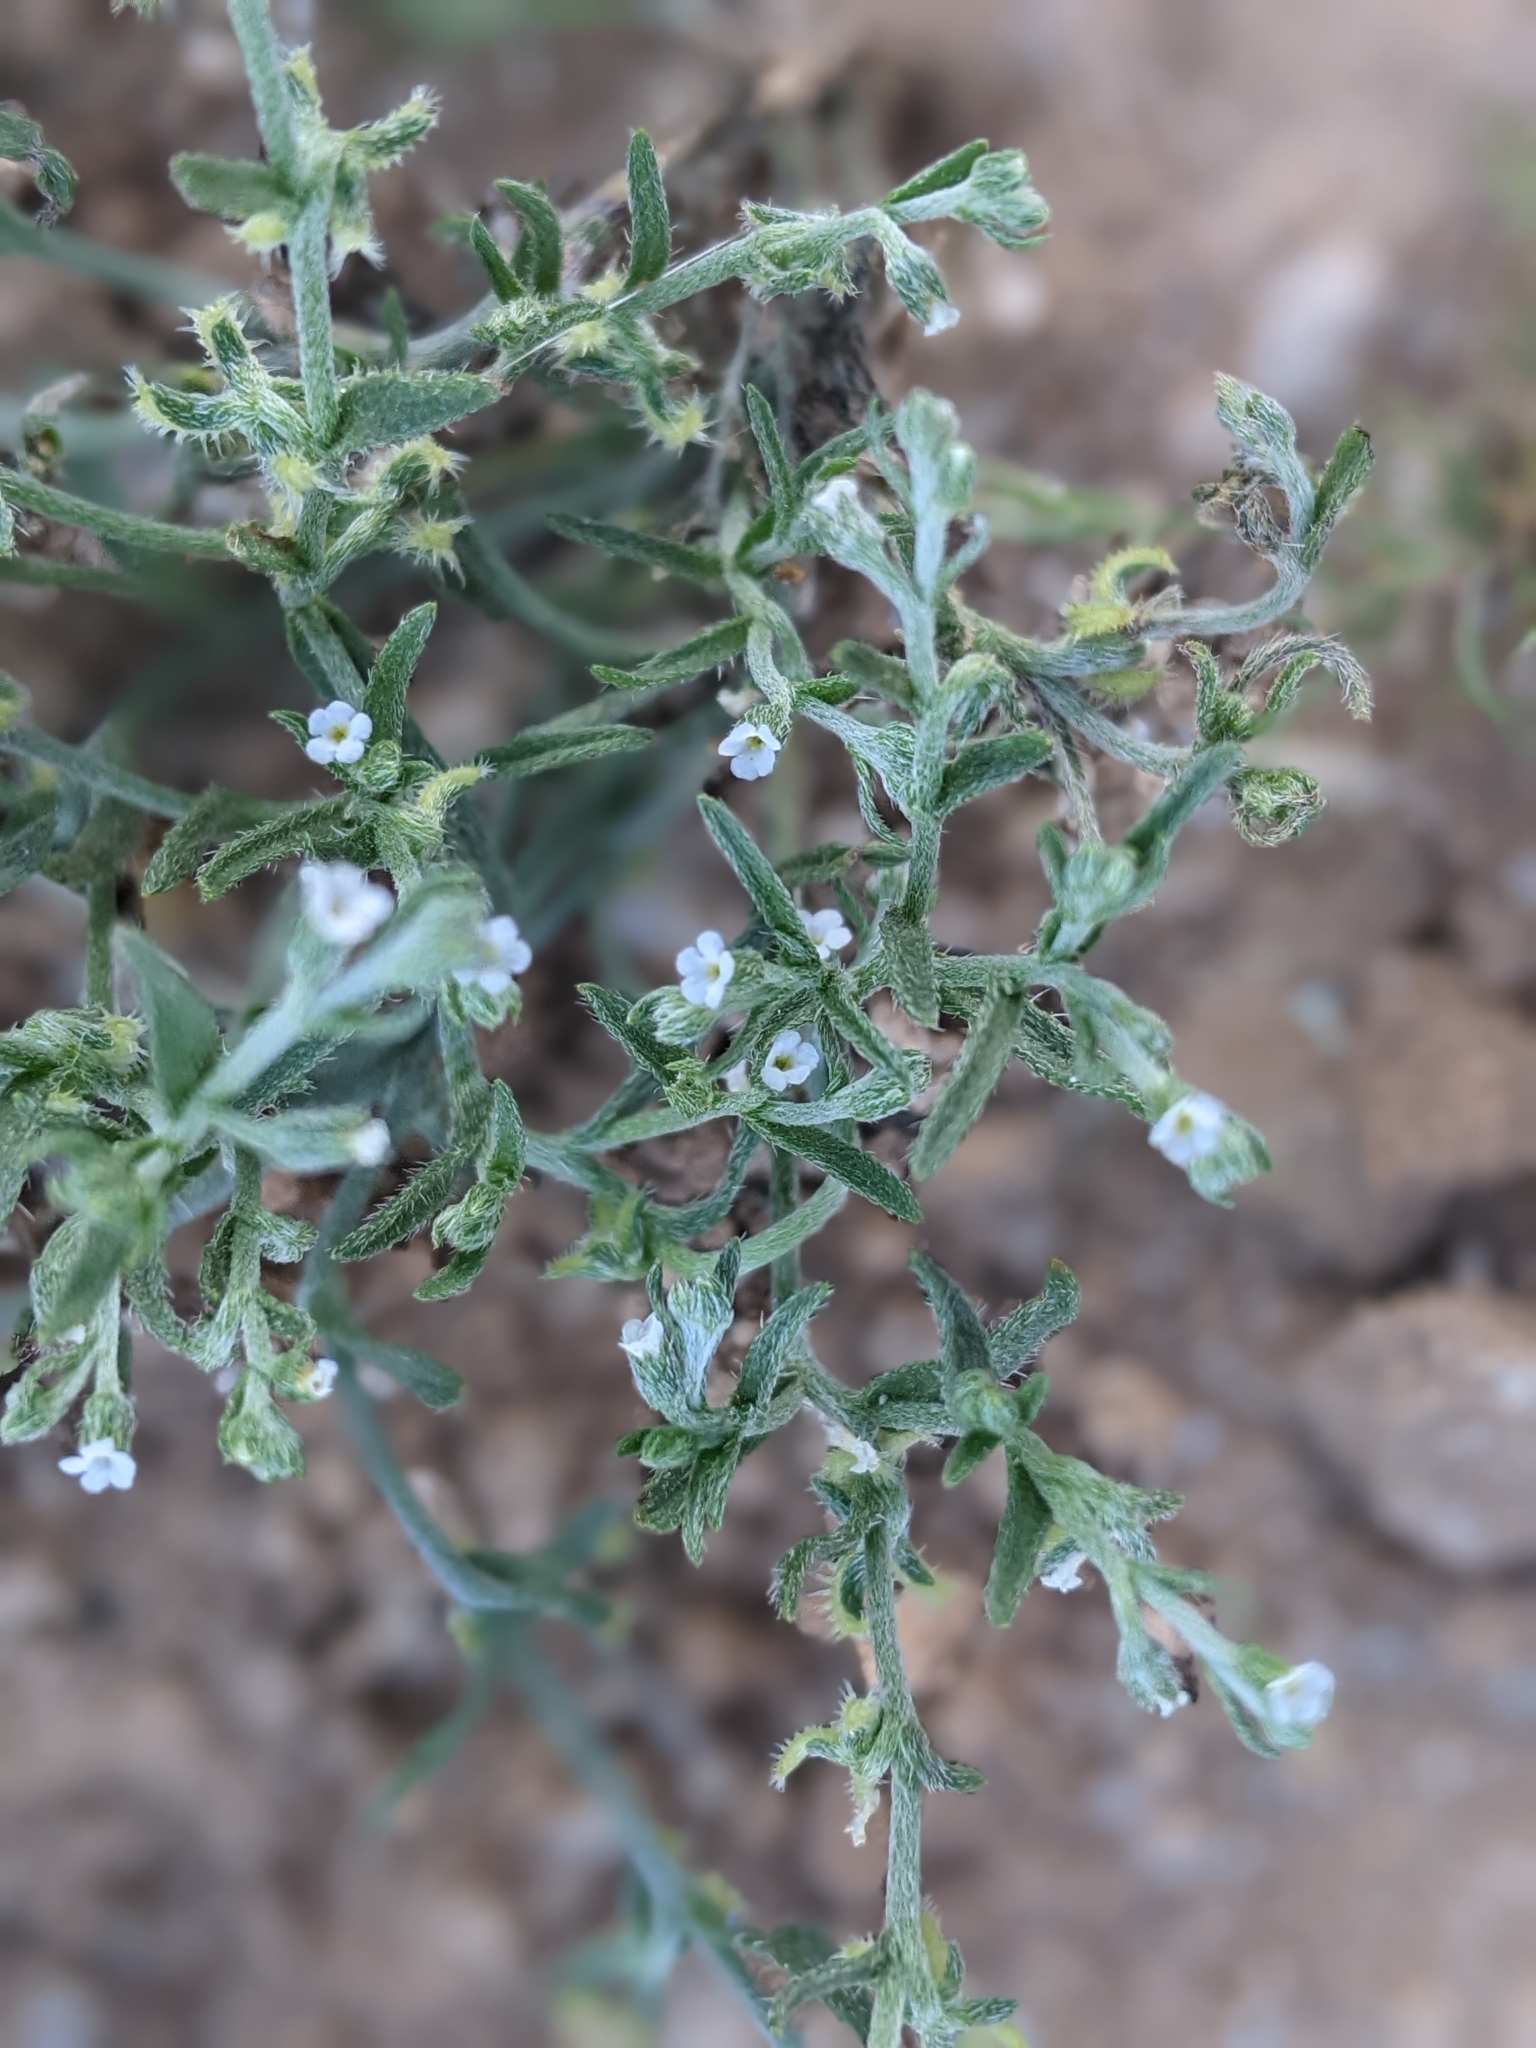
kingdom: Plantae
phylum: Tracheophyta
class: Magnoliopsida
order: Boraginales
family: Boraginaceae
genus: Pectocarya
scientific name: Pectocarya recurvata
